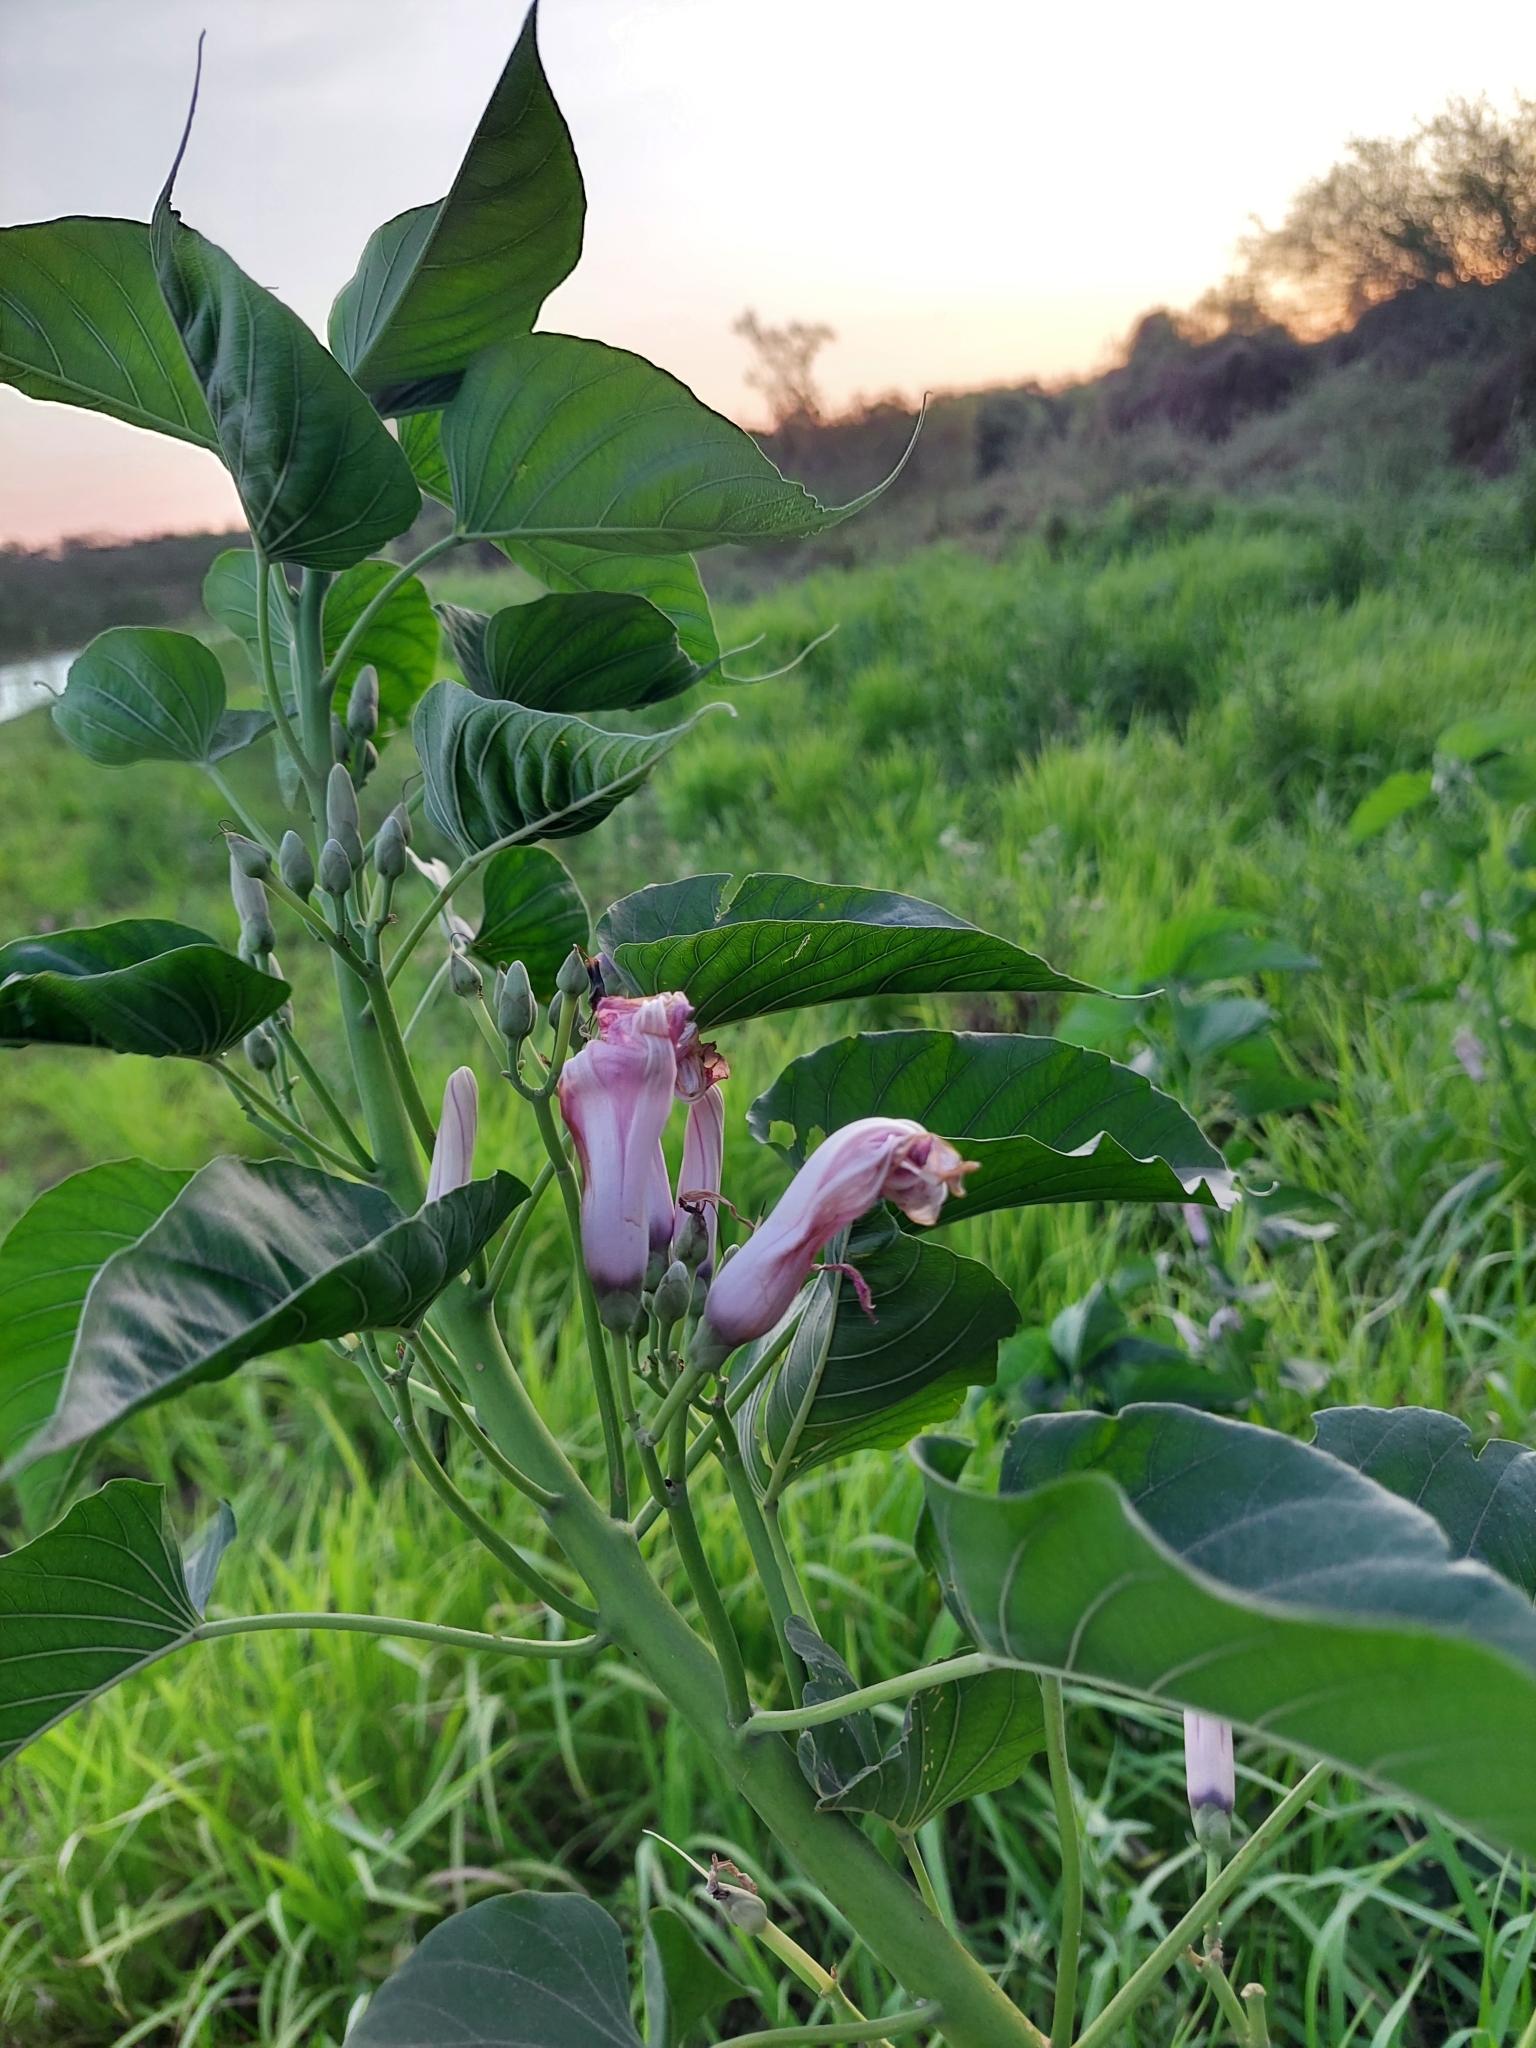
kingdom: Plantae
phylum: Tracheophyta
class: Magnoliopsida
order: Solanales
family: Convolvulaceae
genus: Ipomoea
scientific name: Ipomoea carnea
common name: Morning-glory
